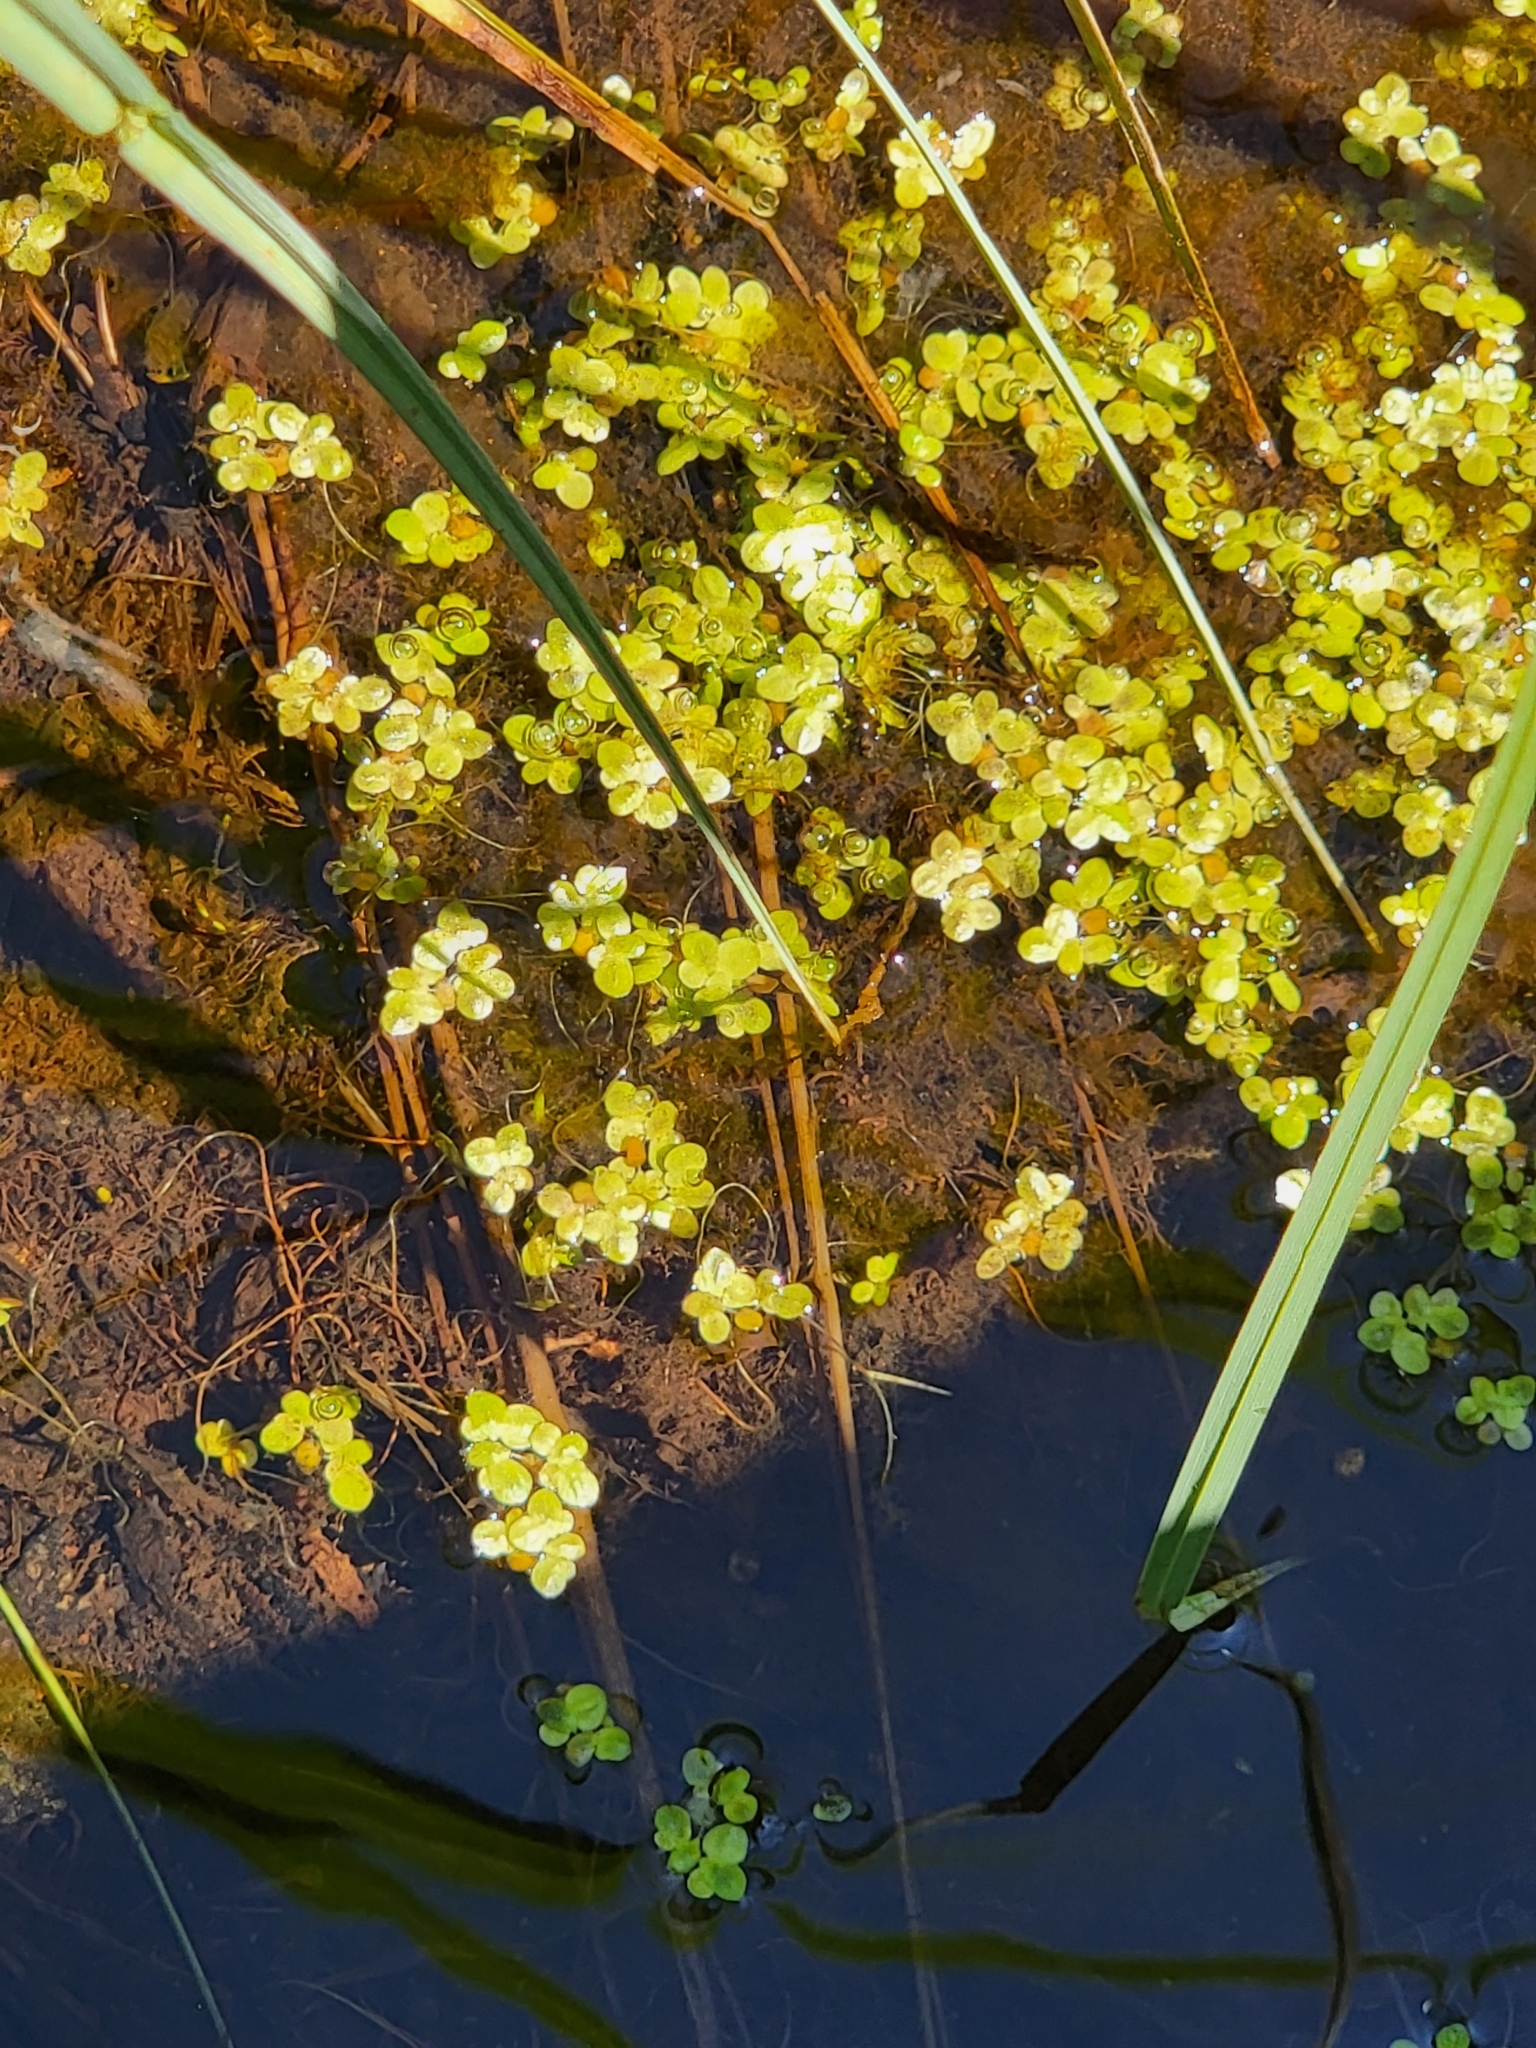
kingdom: Plantae
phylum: Tracheophyta
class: Liliopsida
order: Alismatales
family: Araceae
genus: Spirodela
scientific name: Spirodela polyrhiza
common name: Great duckweed
